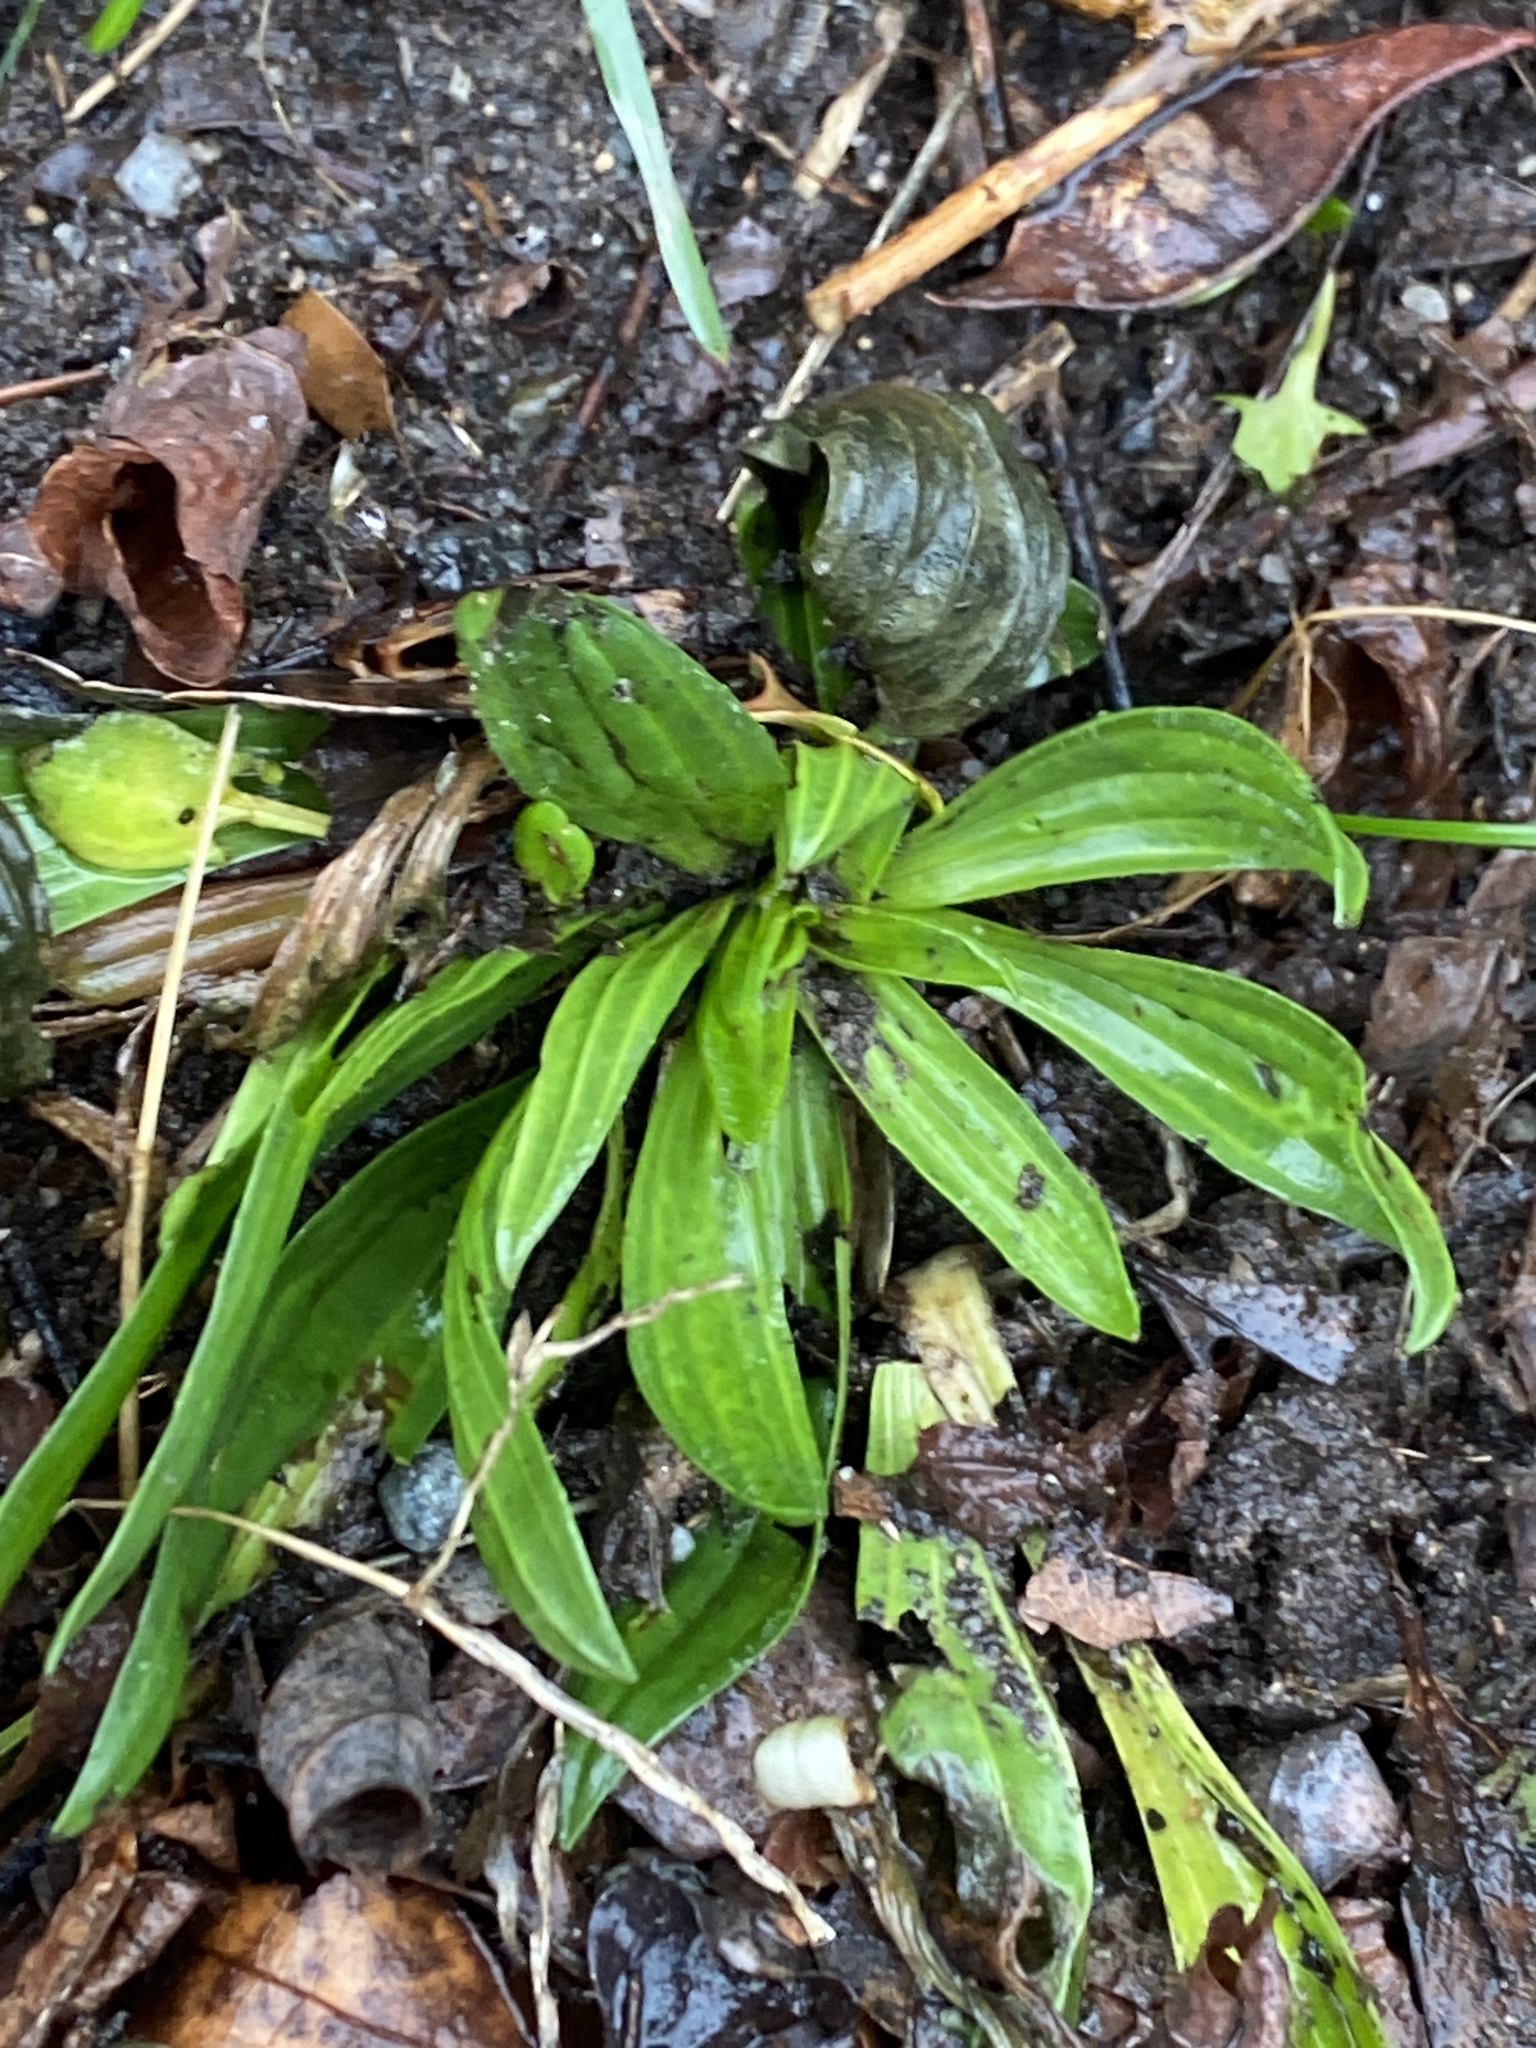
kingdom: Plantae
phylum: Tracheophyta
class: Magnoliopsida
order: Lamiales
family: Plantaginaceae
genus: Plantago
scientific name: Plantago lanceolata
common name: Ribwort plantain
